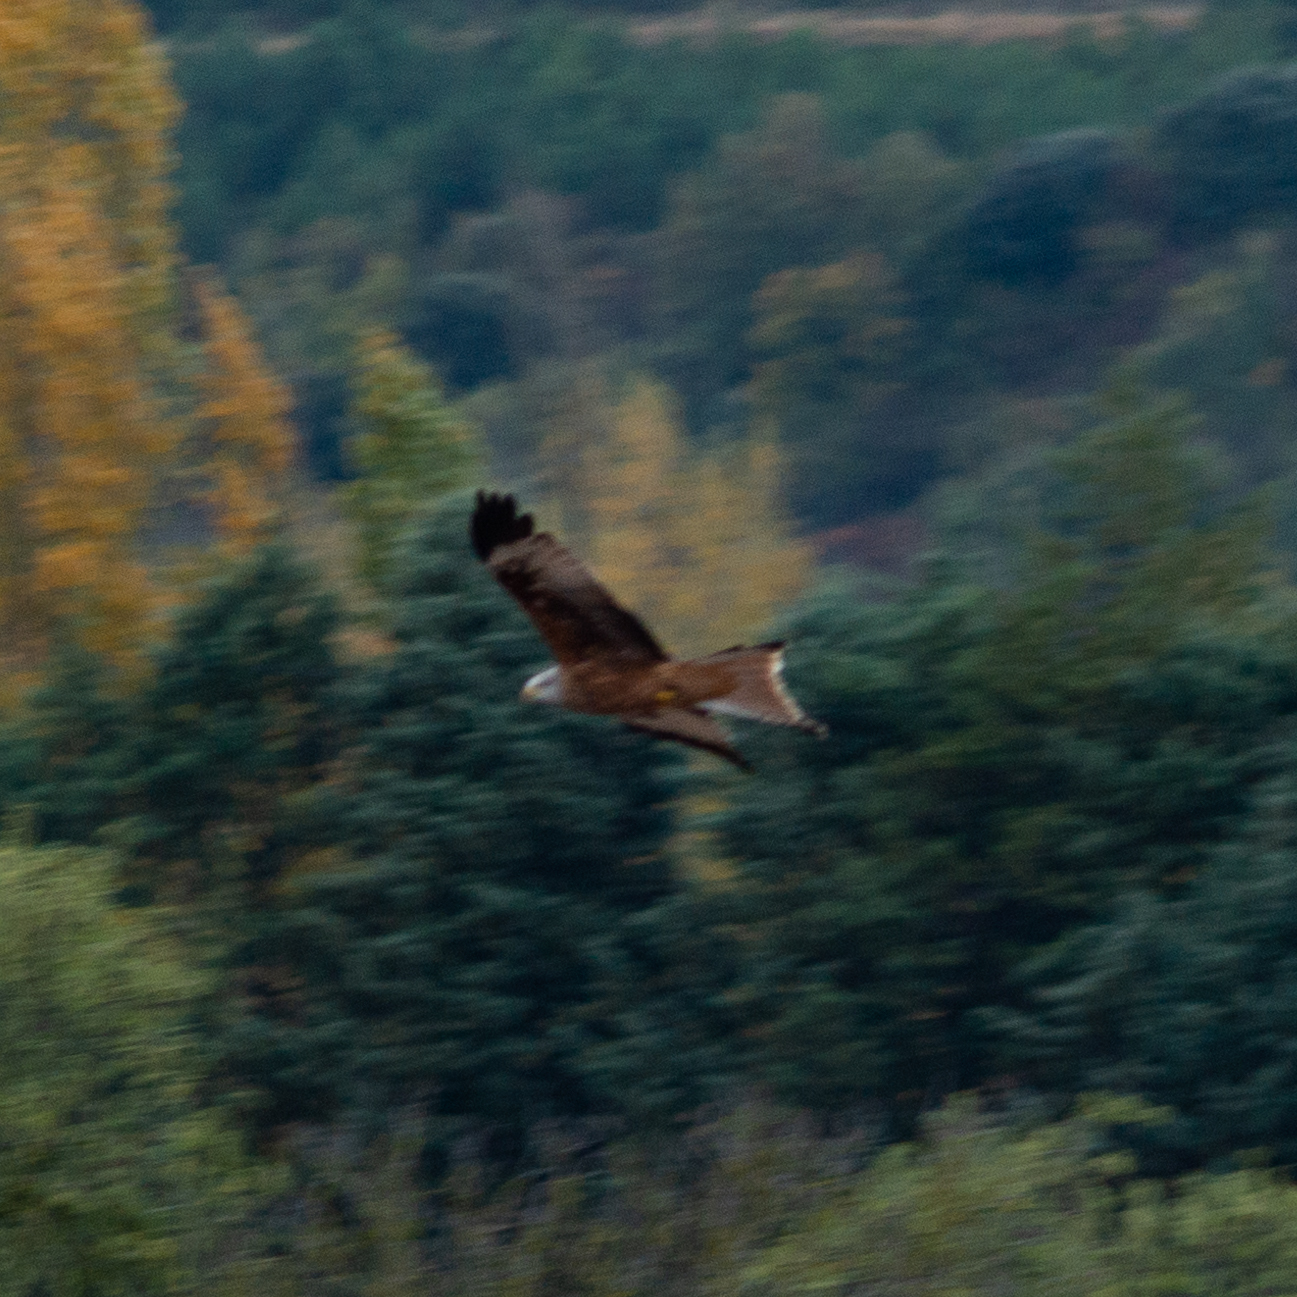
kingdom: Animalia
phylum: Chordata
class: Aves
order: Accipitriformes
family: Accipitridae
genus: Milvus
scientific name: Milvus milvus
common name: Red kite
